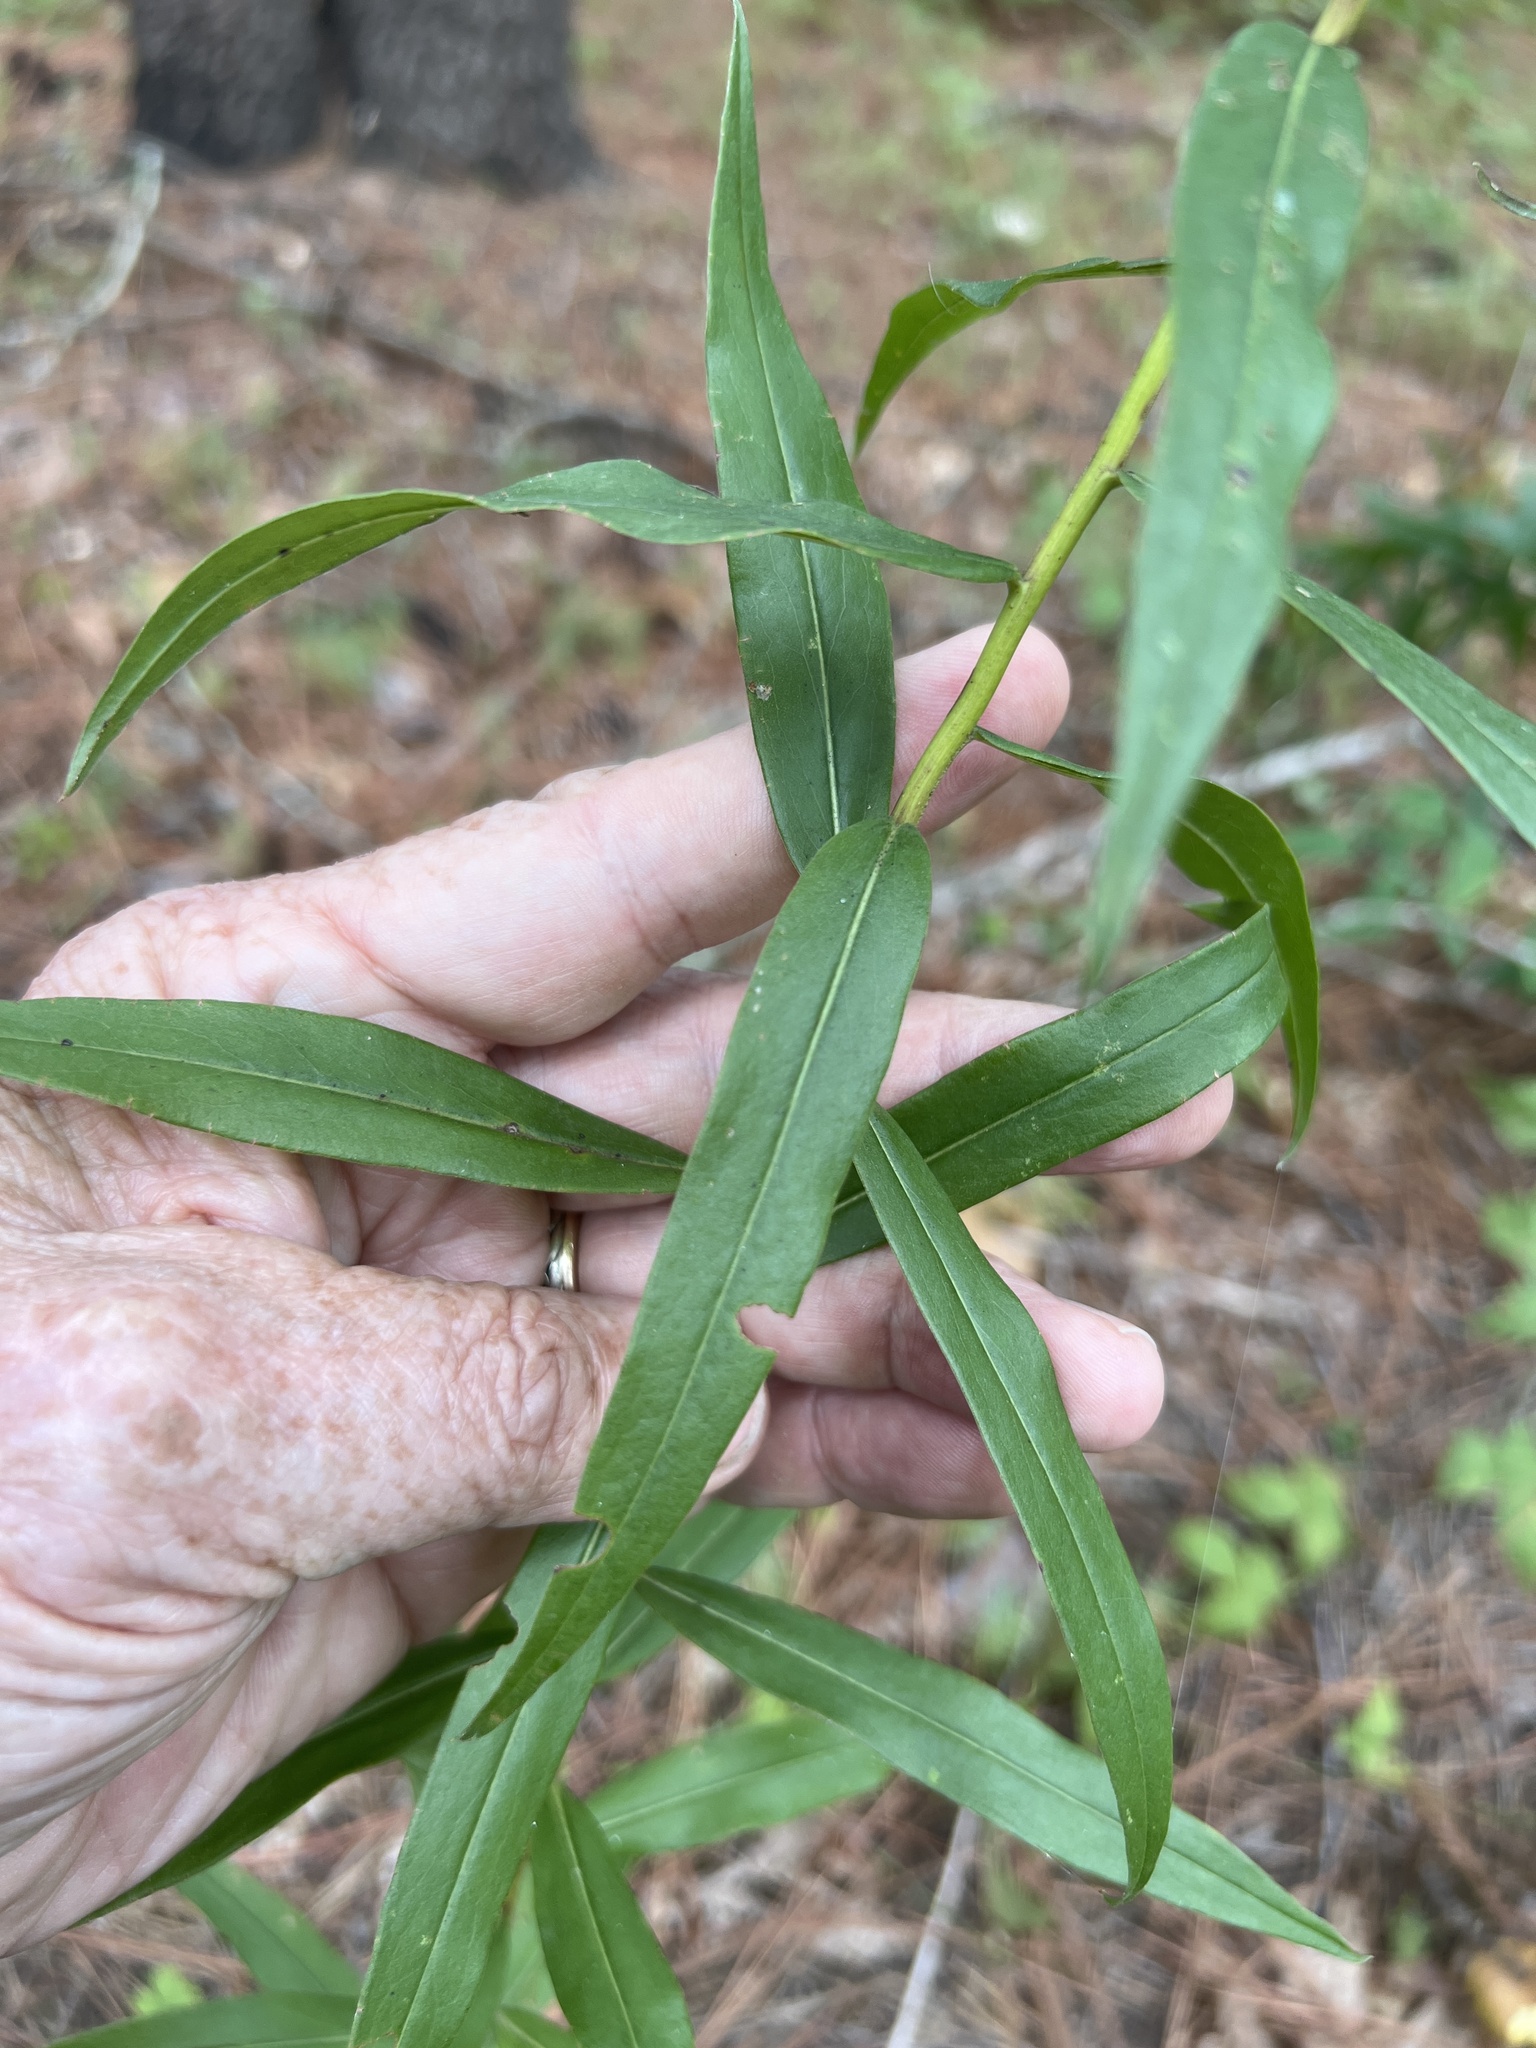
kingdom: Plantae
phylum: Tracheophyta
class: Magnoliopsida
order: Asterales
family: Asteraceae
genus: Solidago
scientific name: Solidago odora
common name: Anise-scented goldenrod
